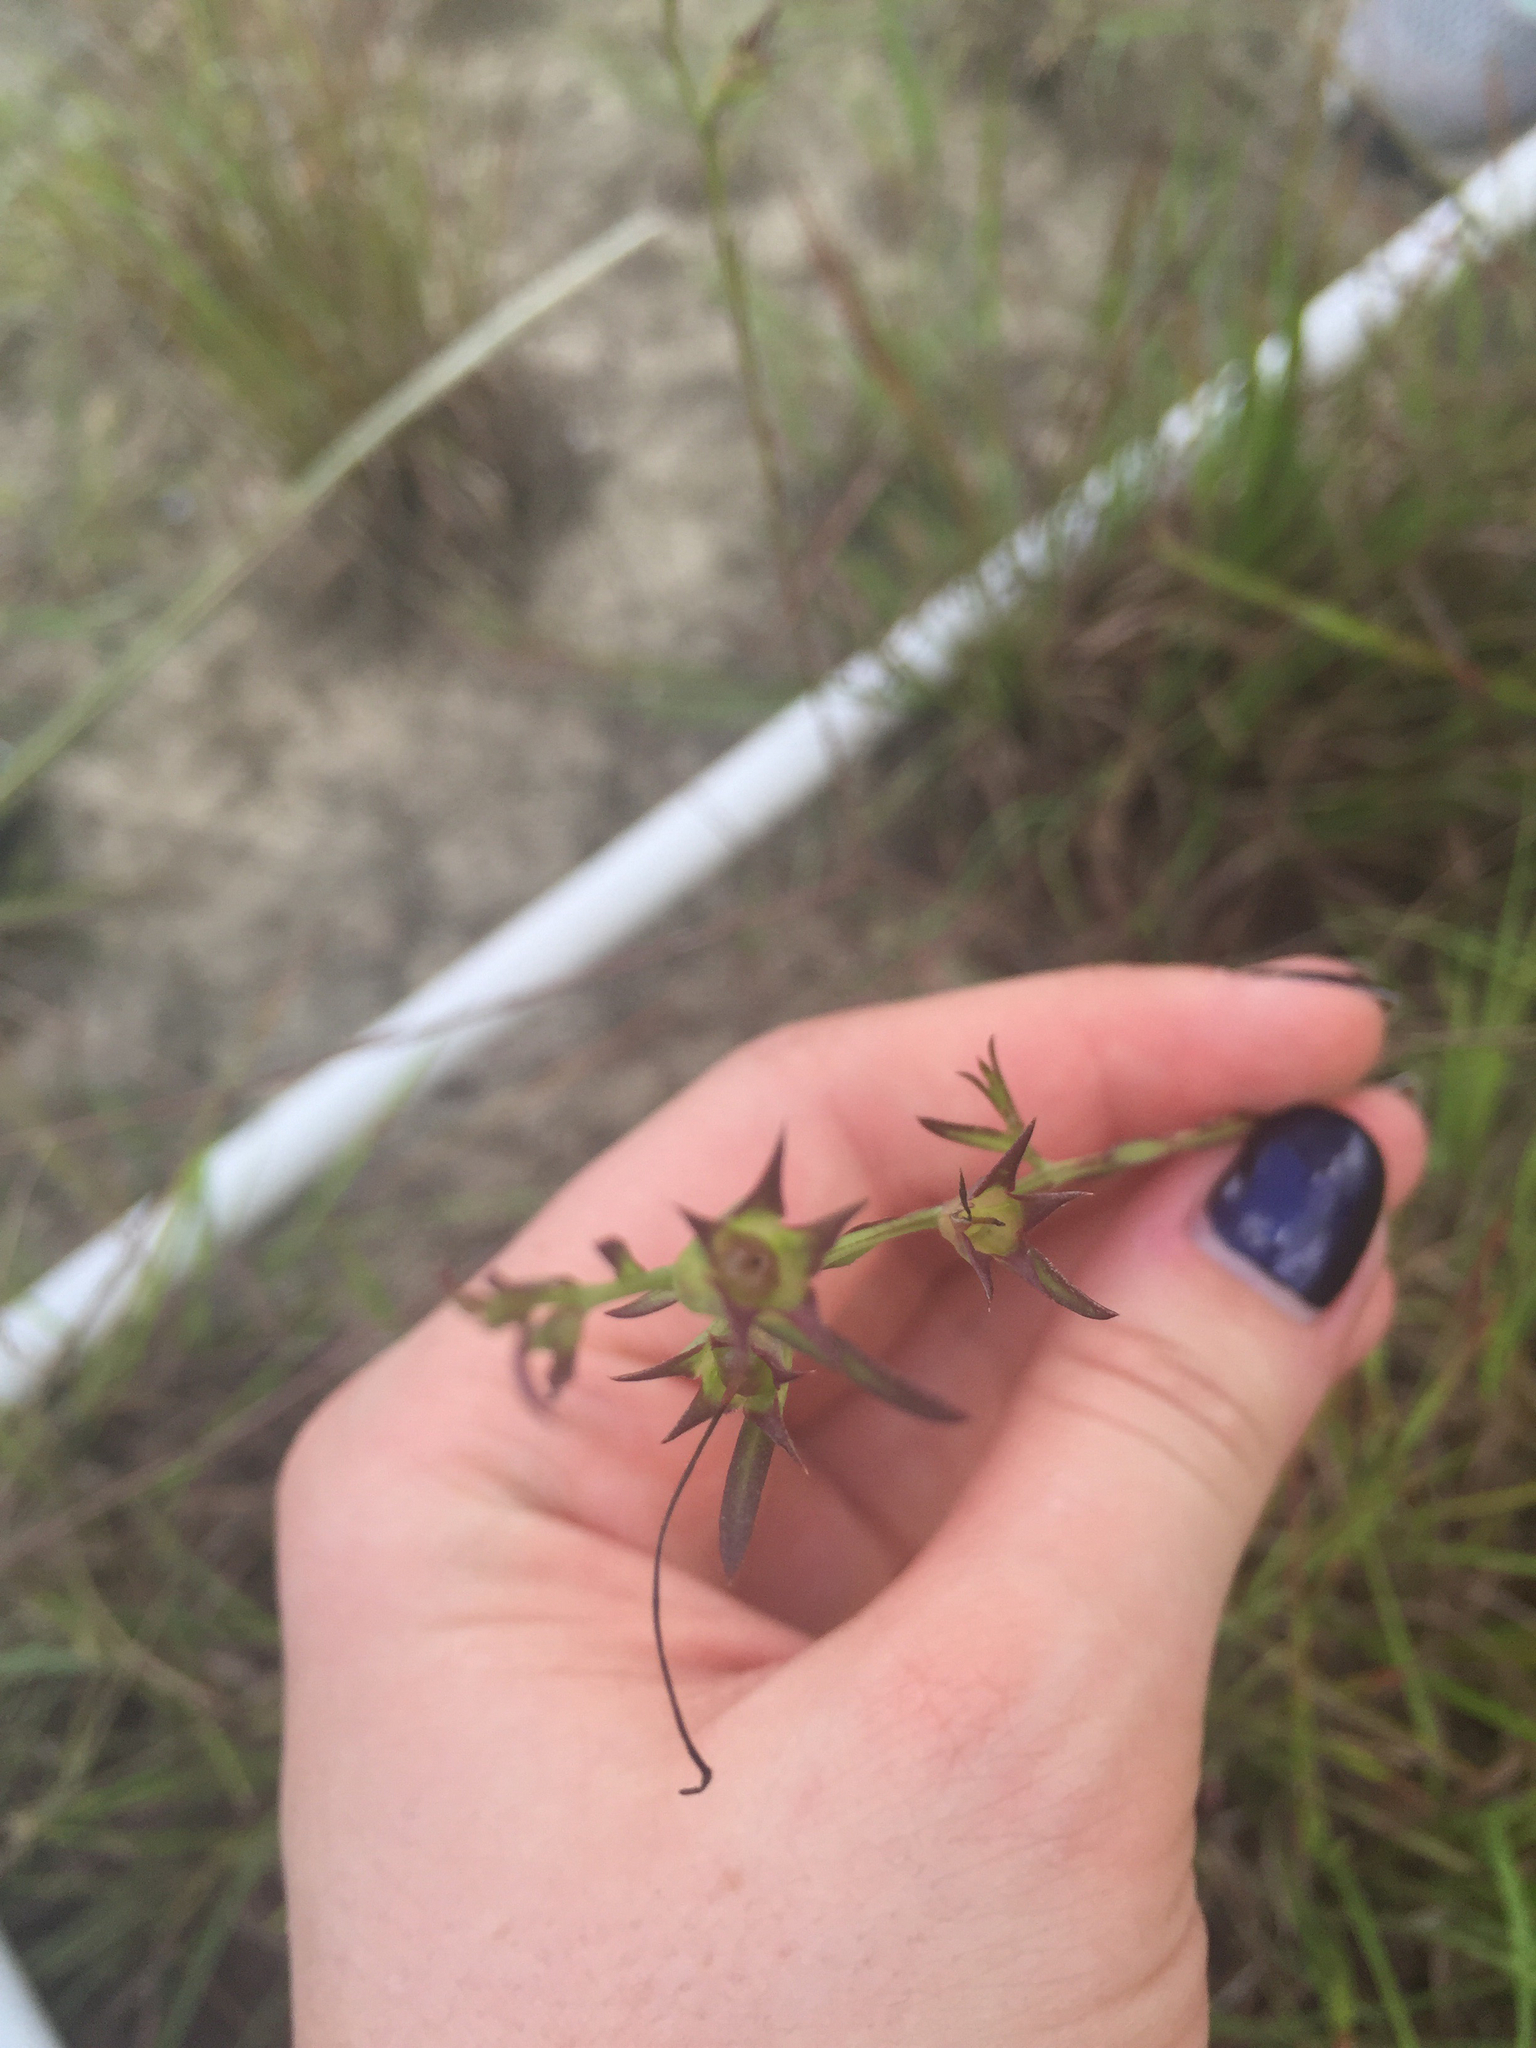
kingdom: Plantae
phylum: Tracheophyta
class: Magnoliopsida
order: Lamiales
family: Orobanchaceae
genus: Agalinis
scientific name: Agalinis heterophylla
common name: Prairie agalinis
